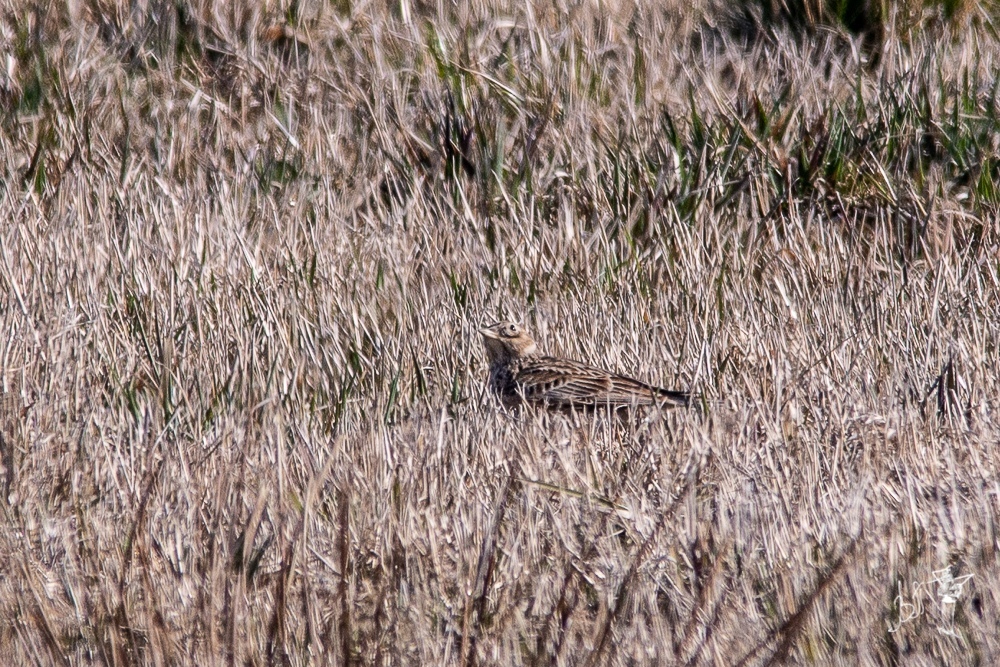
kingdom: Animalia
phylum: Chordata
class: Aves
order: Passeriformes
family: Alaudidae
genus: Alauda
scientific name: Alauda arvensis
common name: Eurasian skylark
